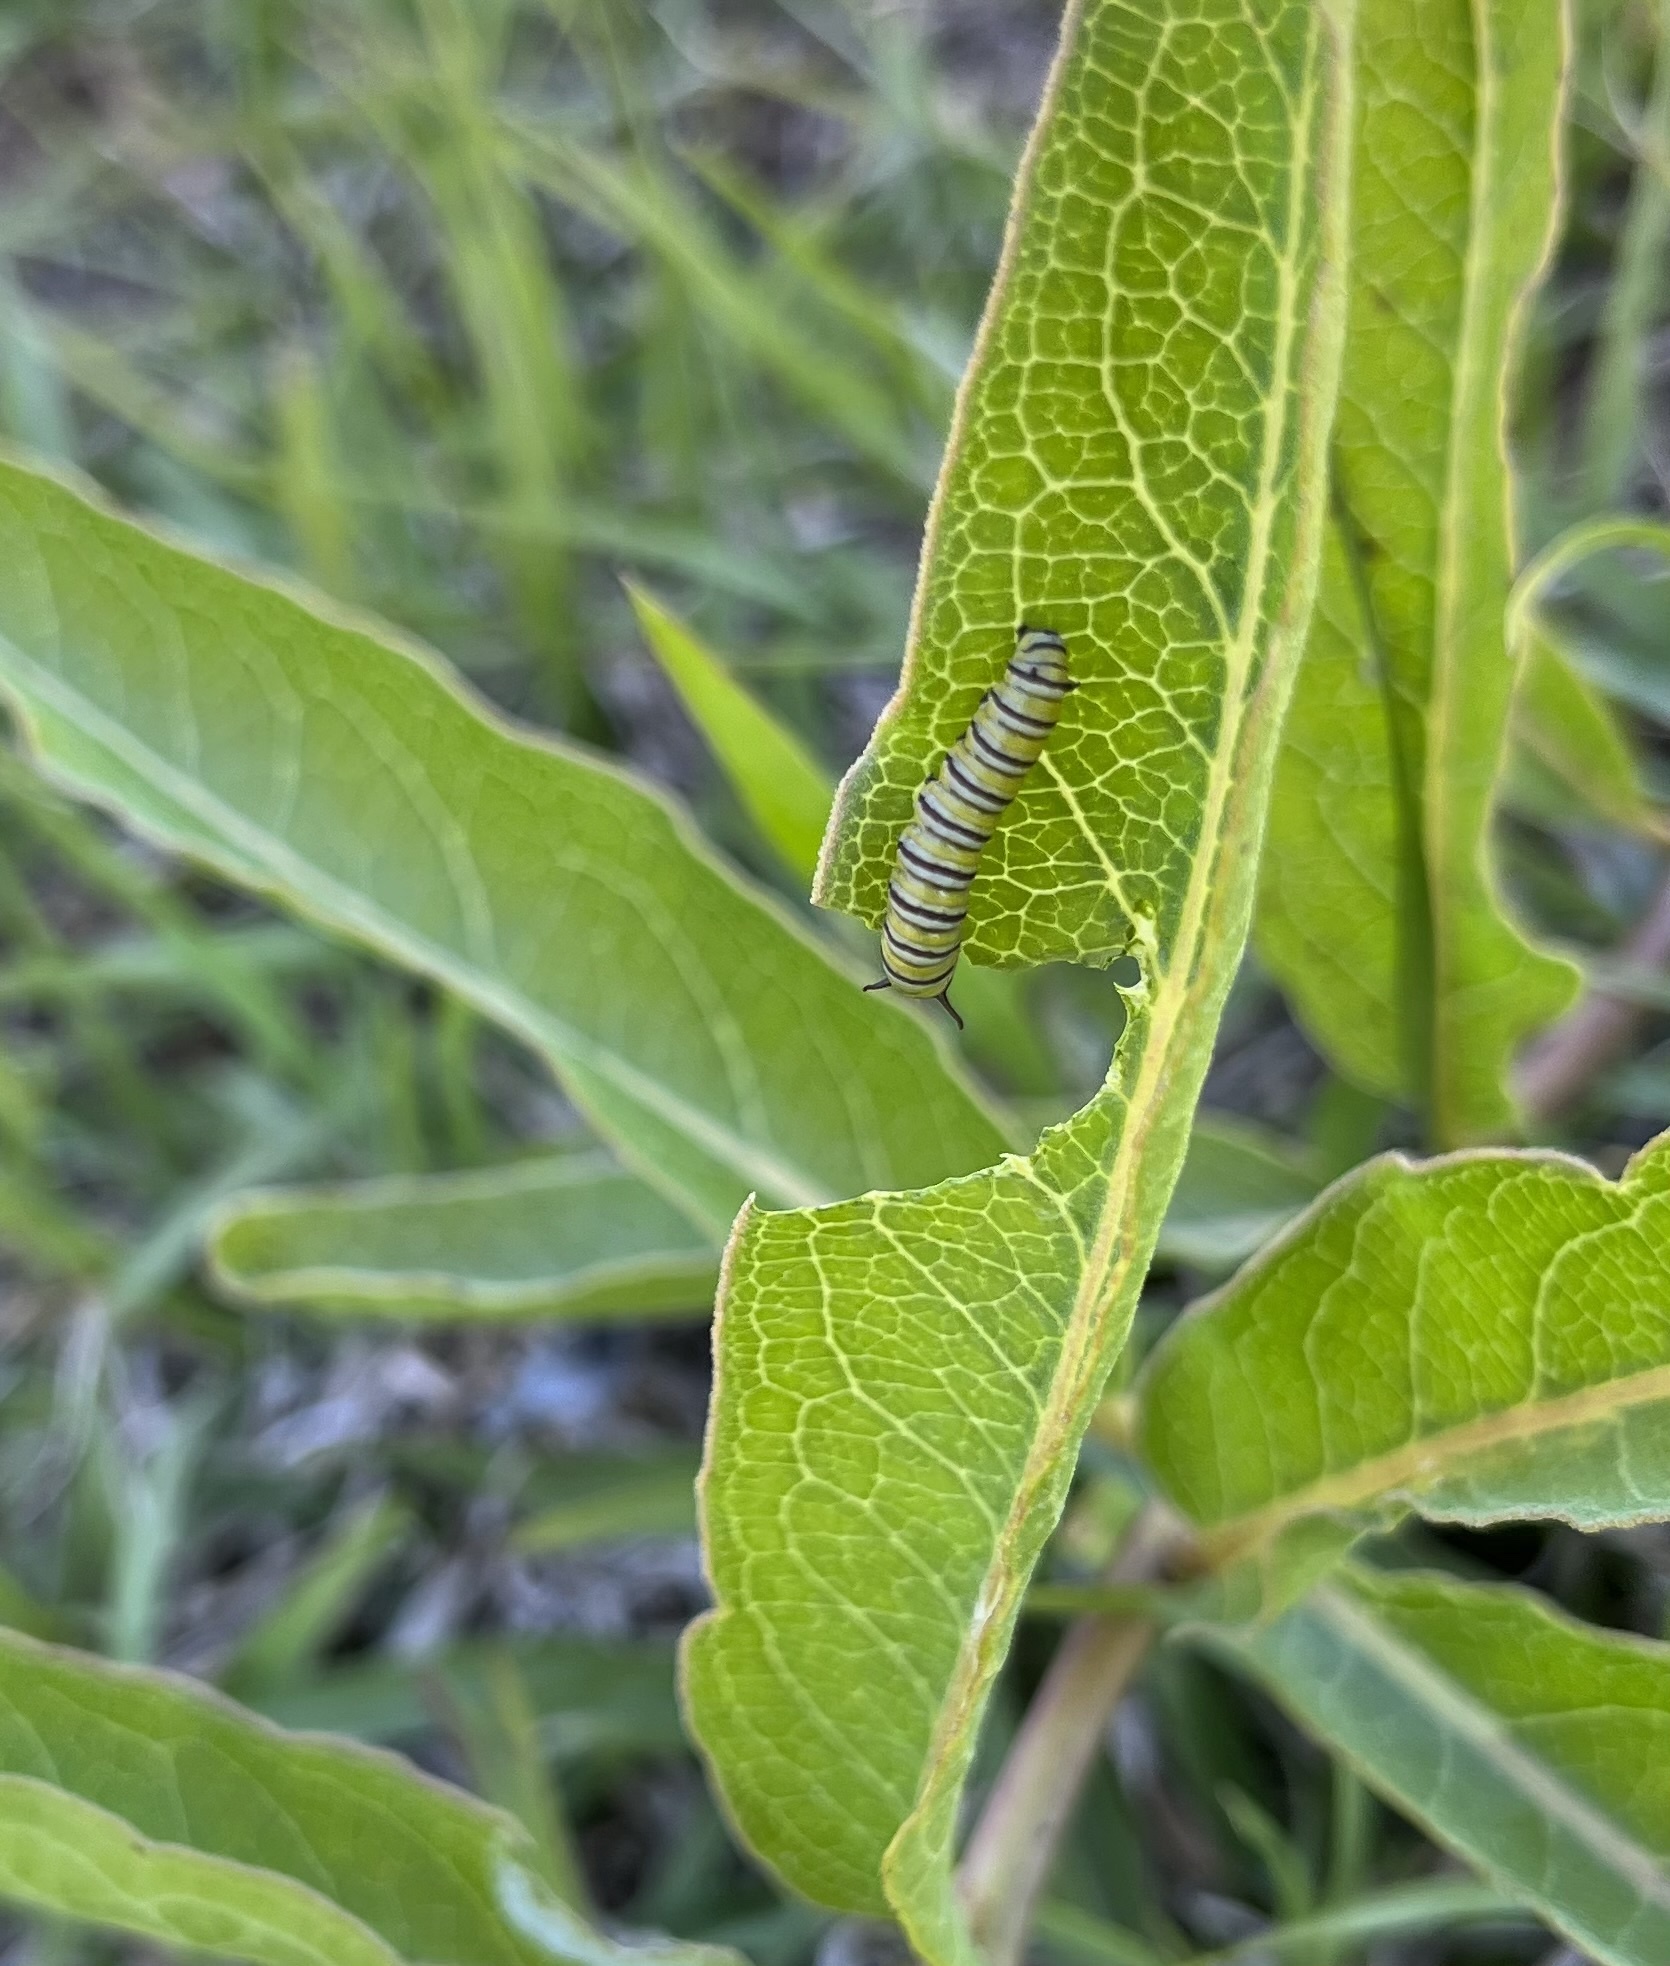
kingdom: Animalia
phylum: Arthropoda
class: Insecta
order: Lepidoptera
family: Nymphalidae
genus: Danaus
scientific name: Danaus plexippus
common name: Monarch
